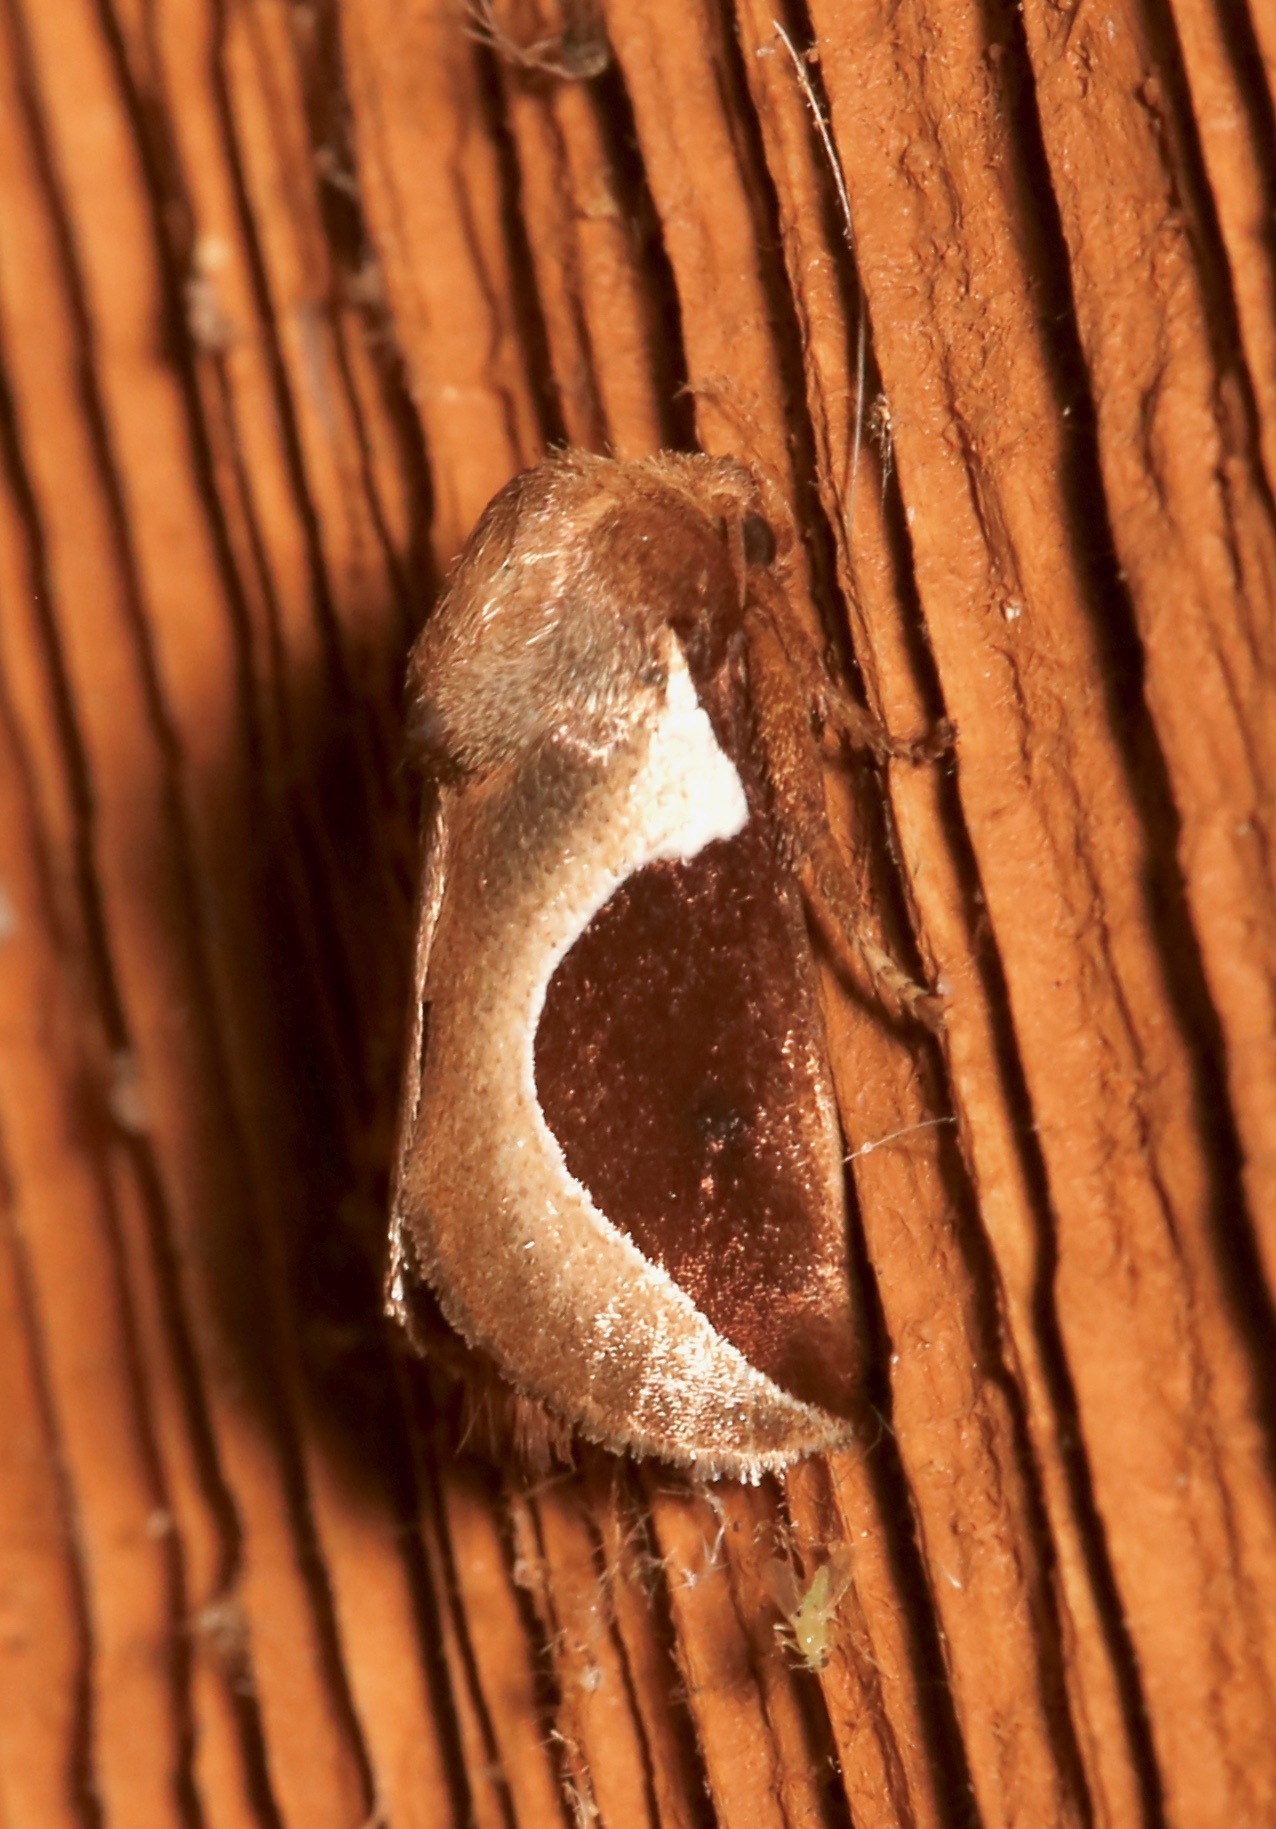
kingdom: Animalia
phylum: Arthropoda
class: Insecta
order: Lepidoptera
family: Limacodidae
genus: Prolimacodes
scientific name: Prolimacodes badia
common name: Skiff moth
